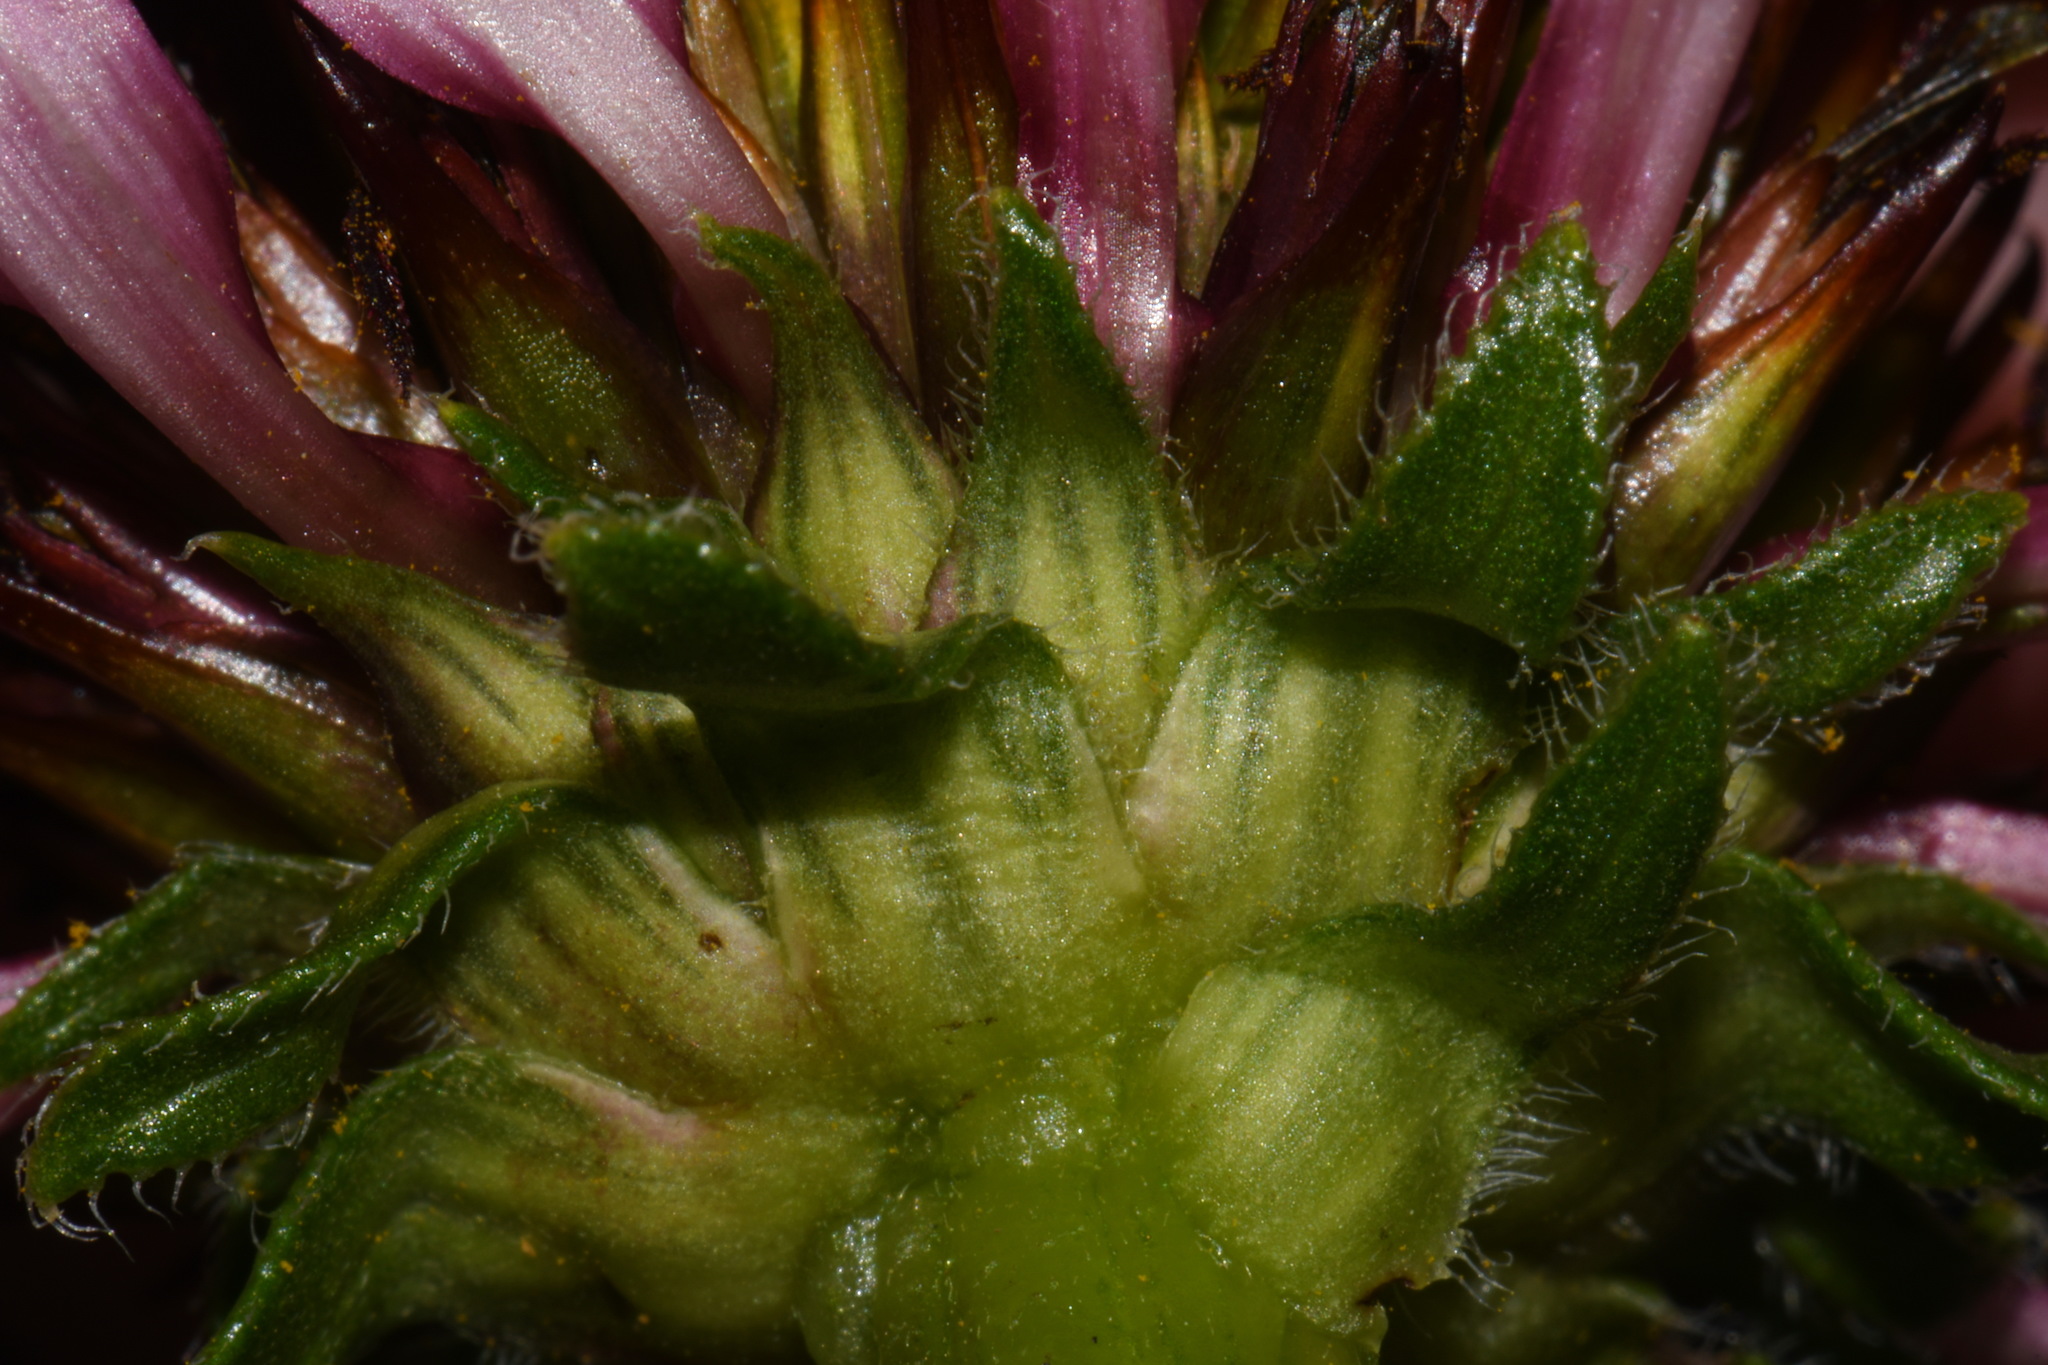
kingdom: Plantae
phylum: Tracheophyta
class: Magnoliopsida
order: Asterales
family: Asteraceae
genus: Echinacea
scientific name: Echinacea simulata
